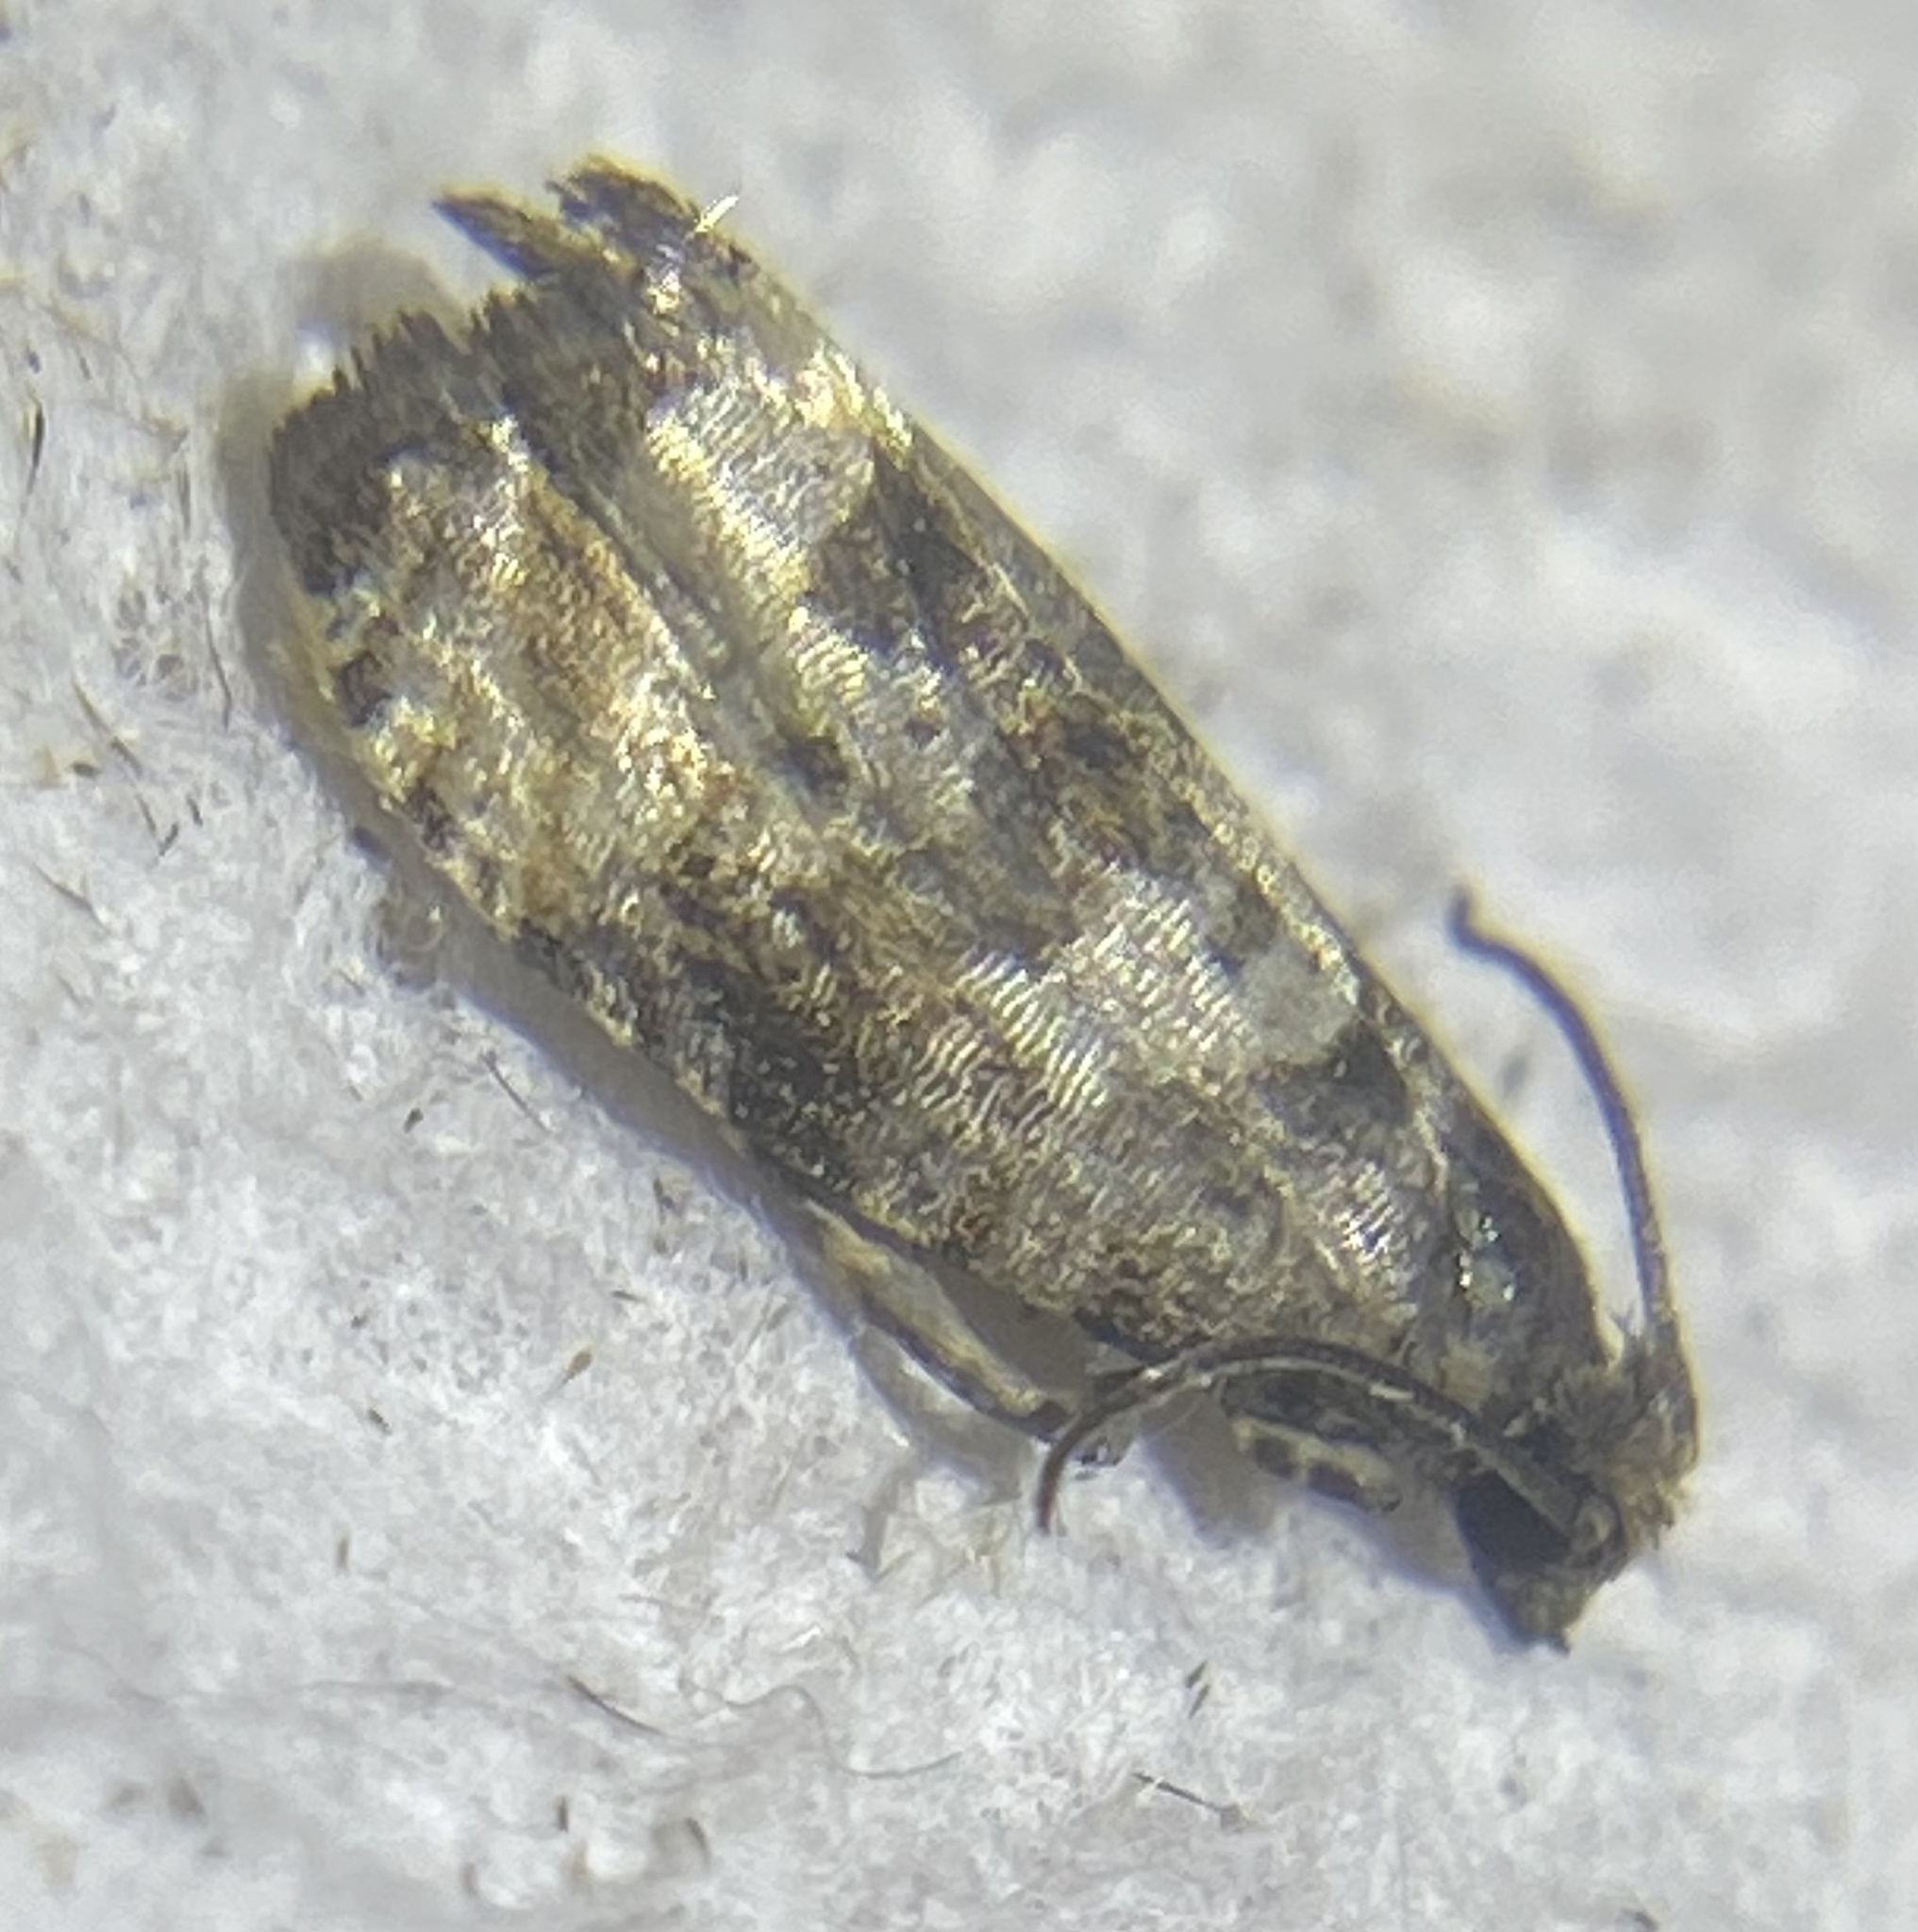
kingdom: Animalia
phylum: Arthropoda
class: Insecta
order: Lepidoptera
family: Tortricidae
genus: Hulda
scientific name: Hulda impudens
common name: Impudent hulda moth
